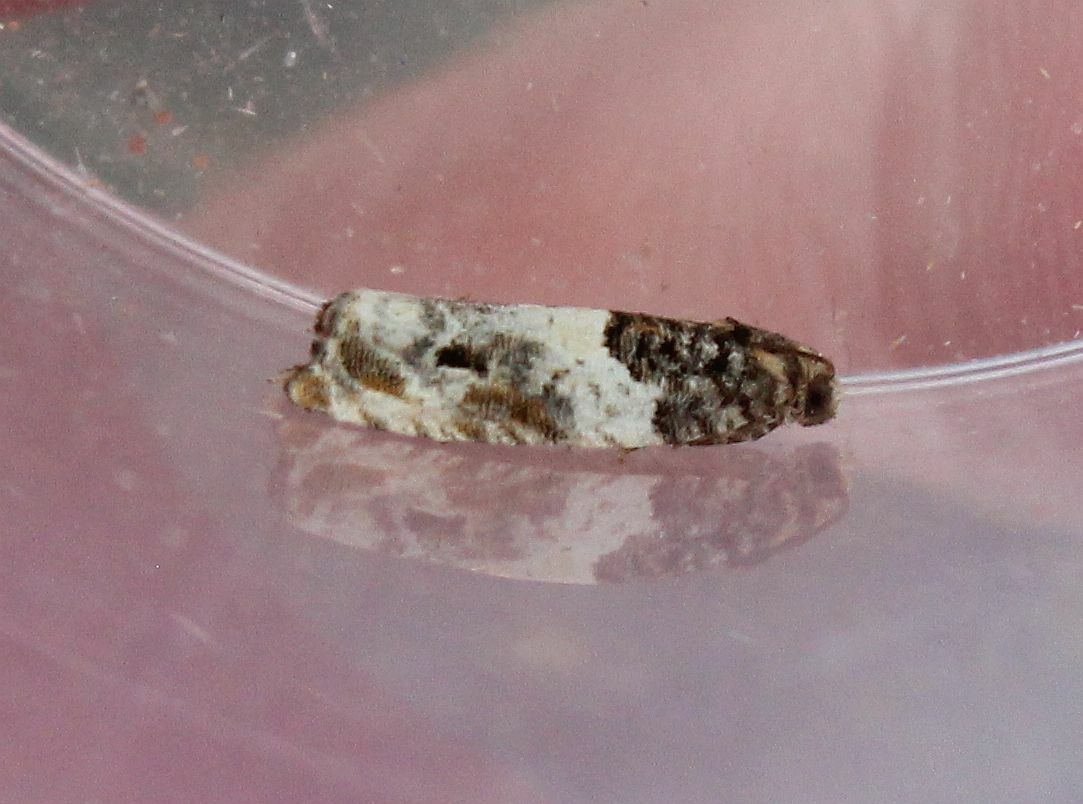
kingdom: Animalia
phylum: Arthropoda
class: Insecta
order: Lepidoptera
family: Tortricidae
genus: Gypsonoma
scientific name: Gypsonoma dealbana
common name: Common cloaked shoot
